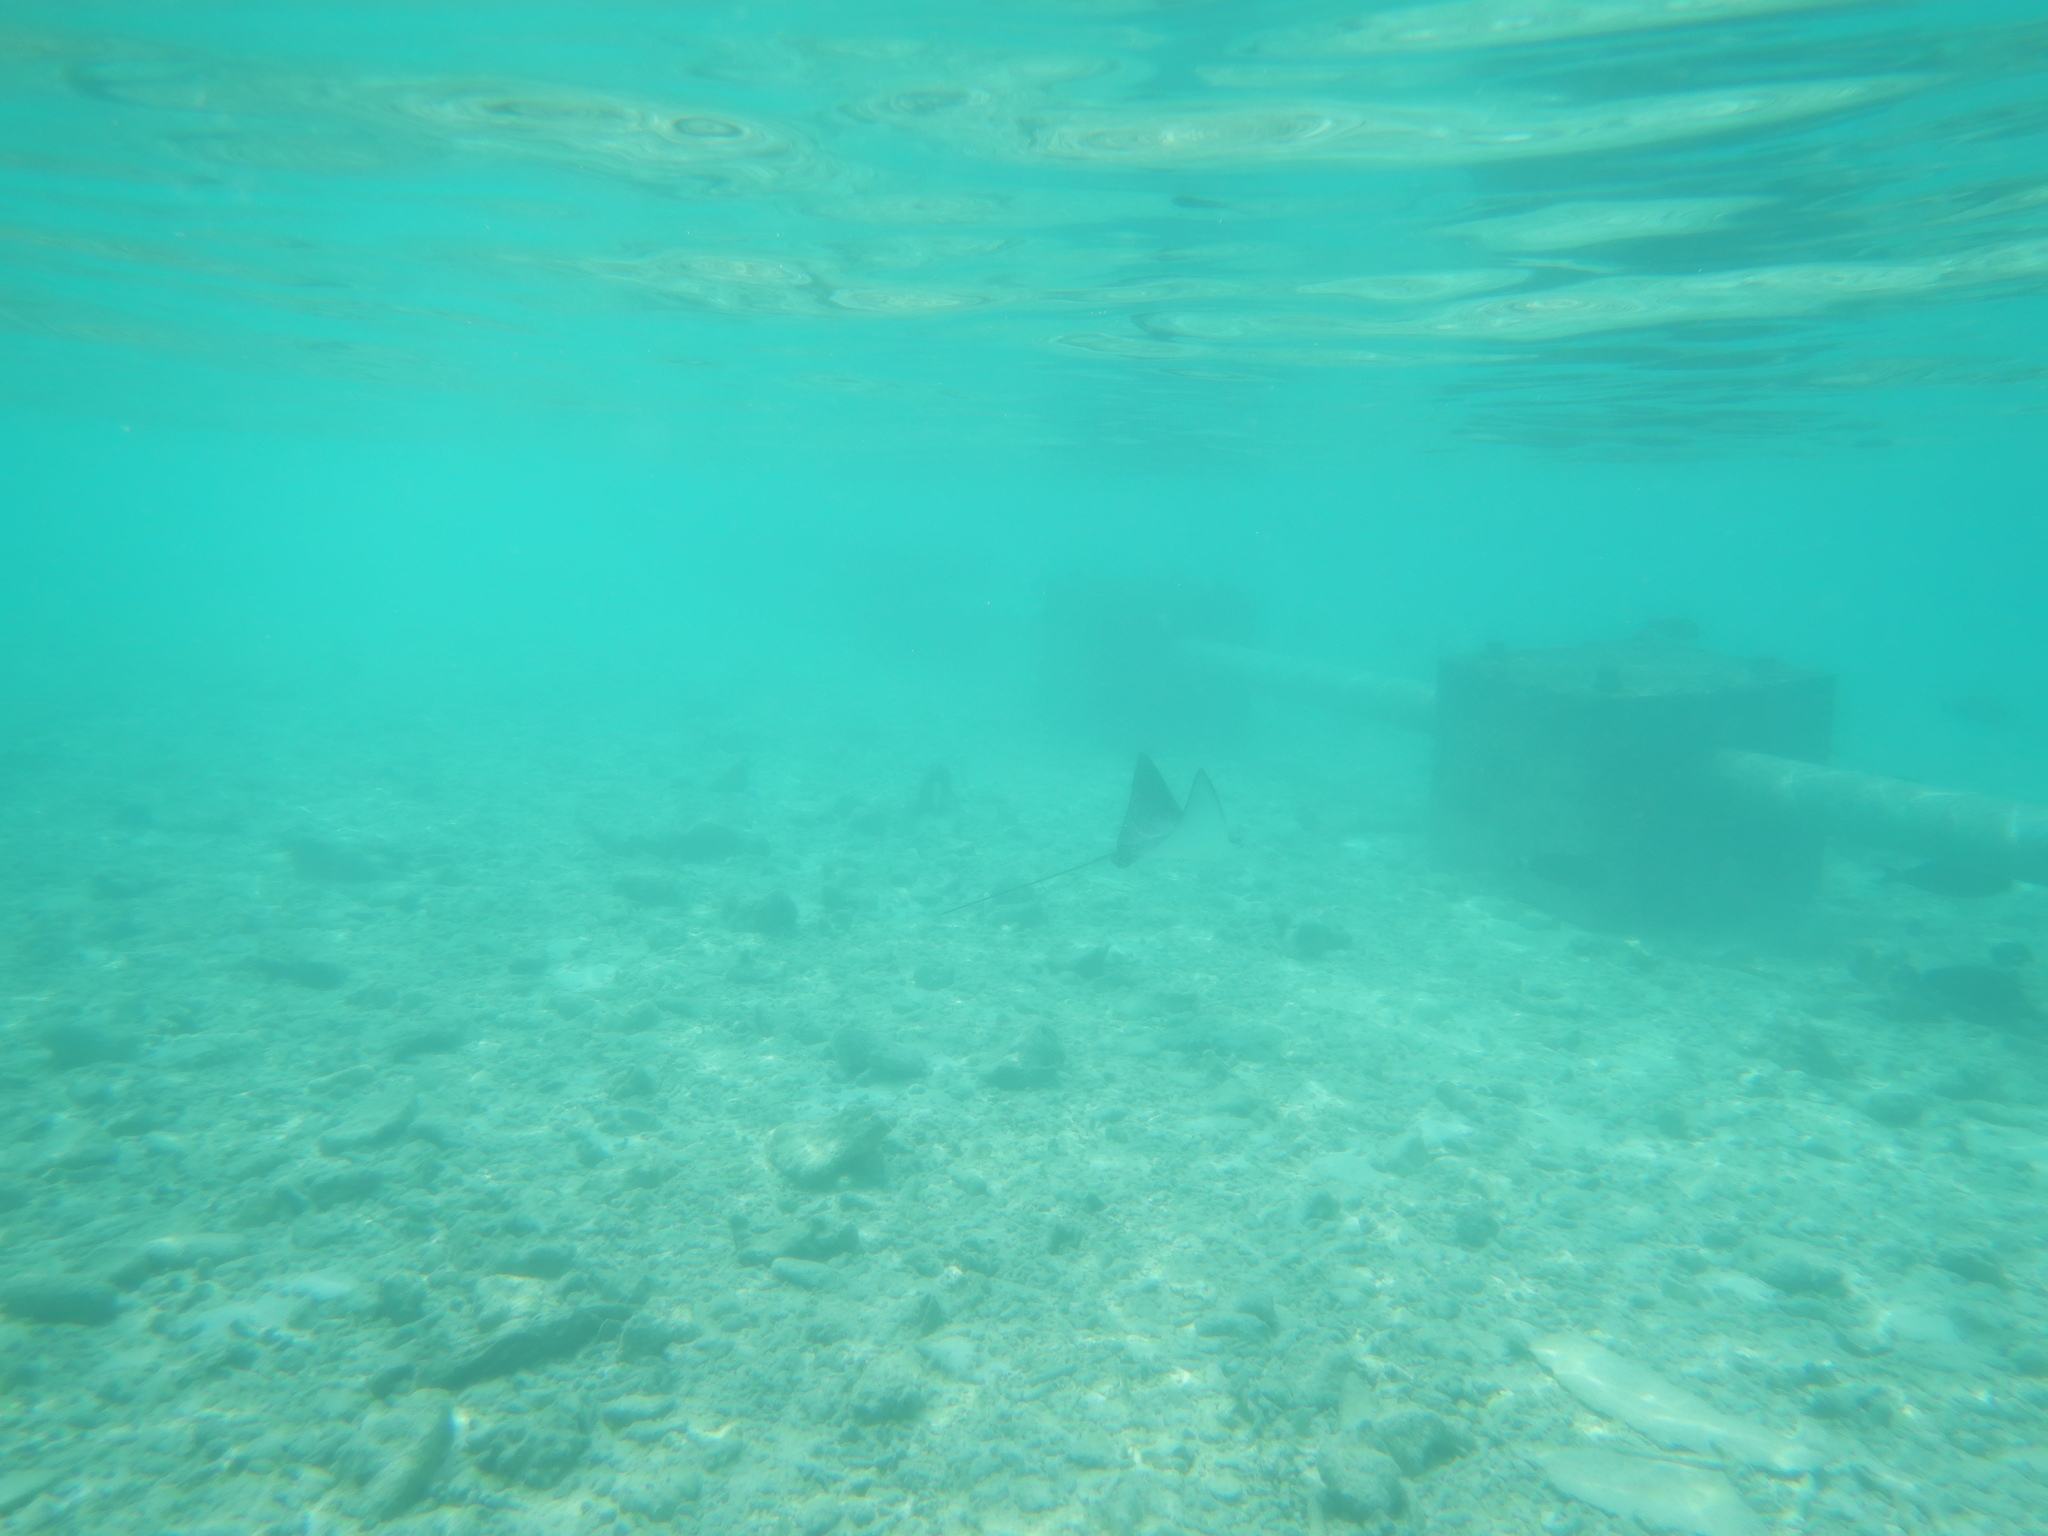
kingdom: Animalia
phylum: Chordata
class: Elasmobranchii
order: Myliobatiformes
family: Myliobatidae
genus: Aetobatus
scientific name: Aetobatus ocellatus
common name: Ocellated eagle ray
